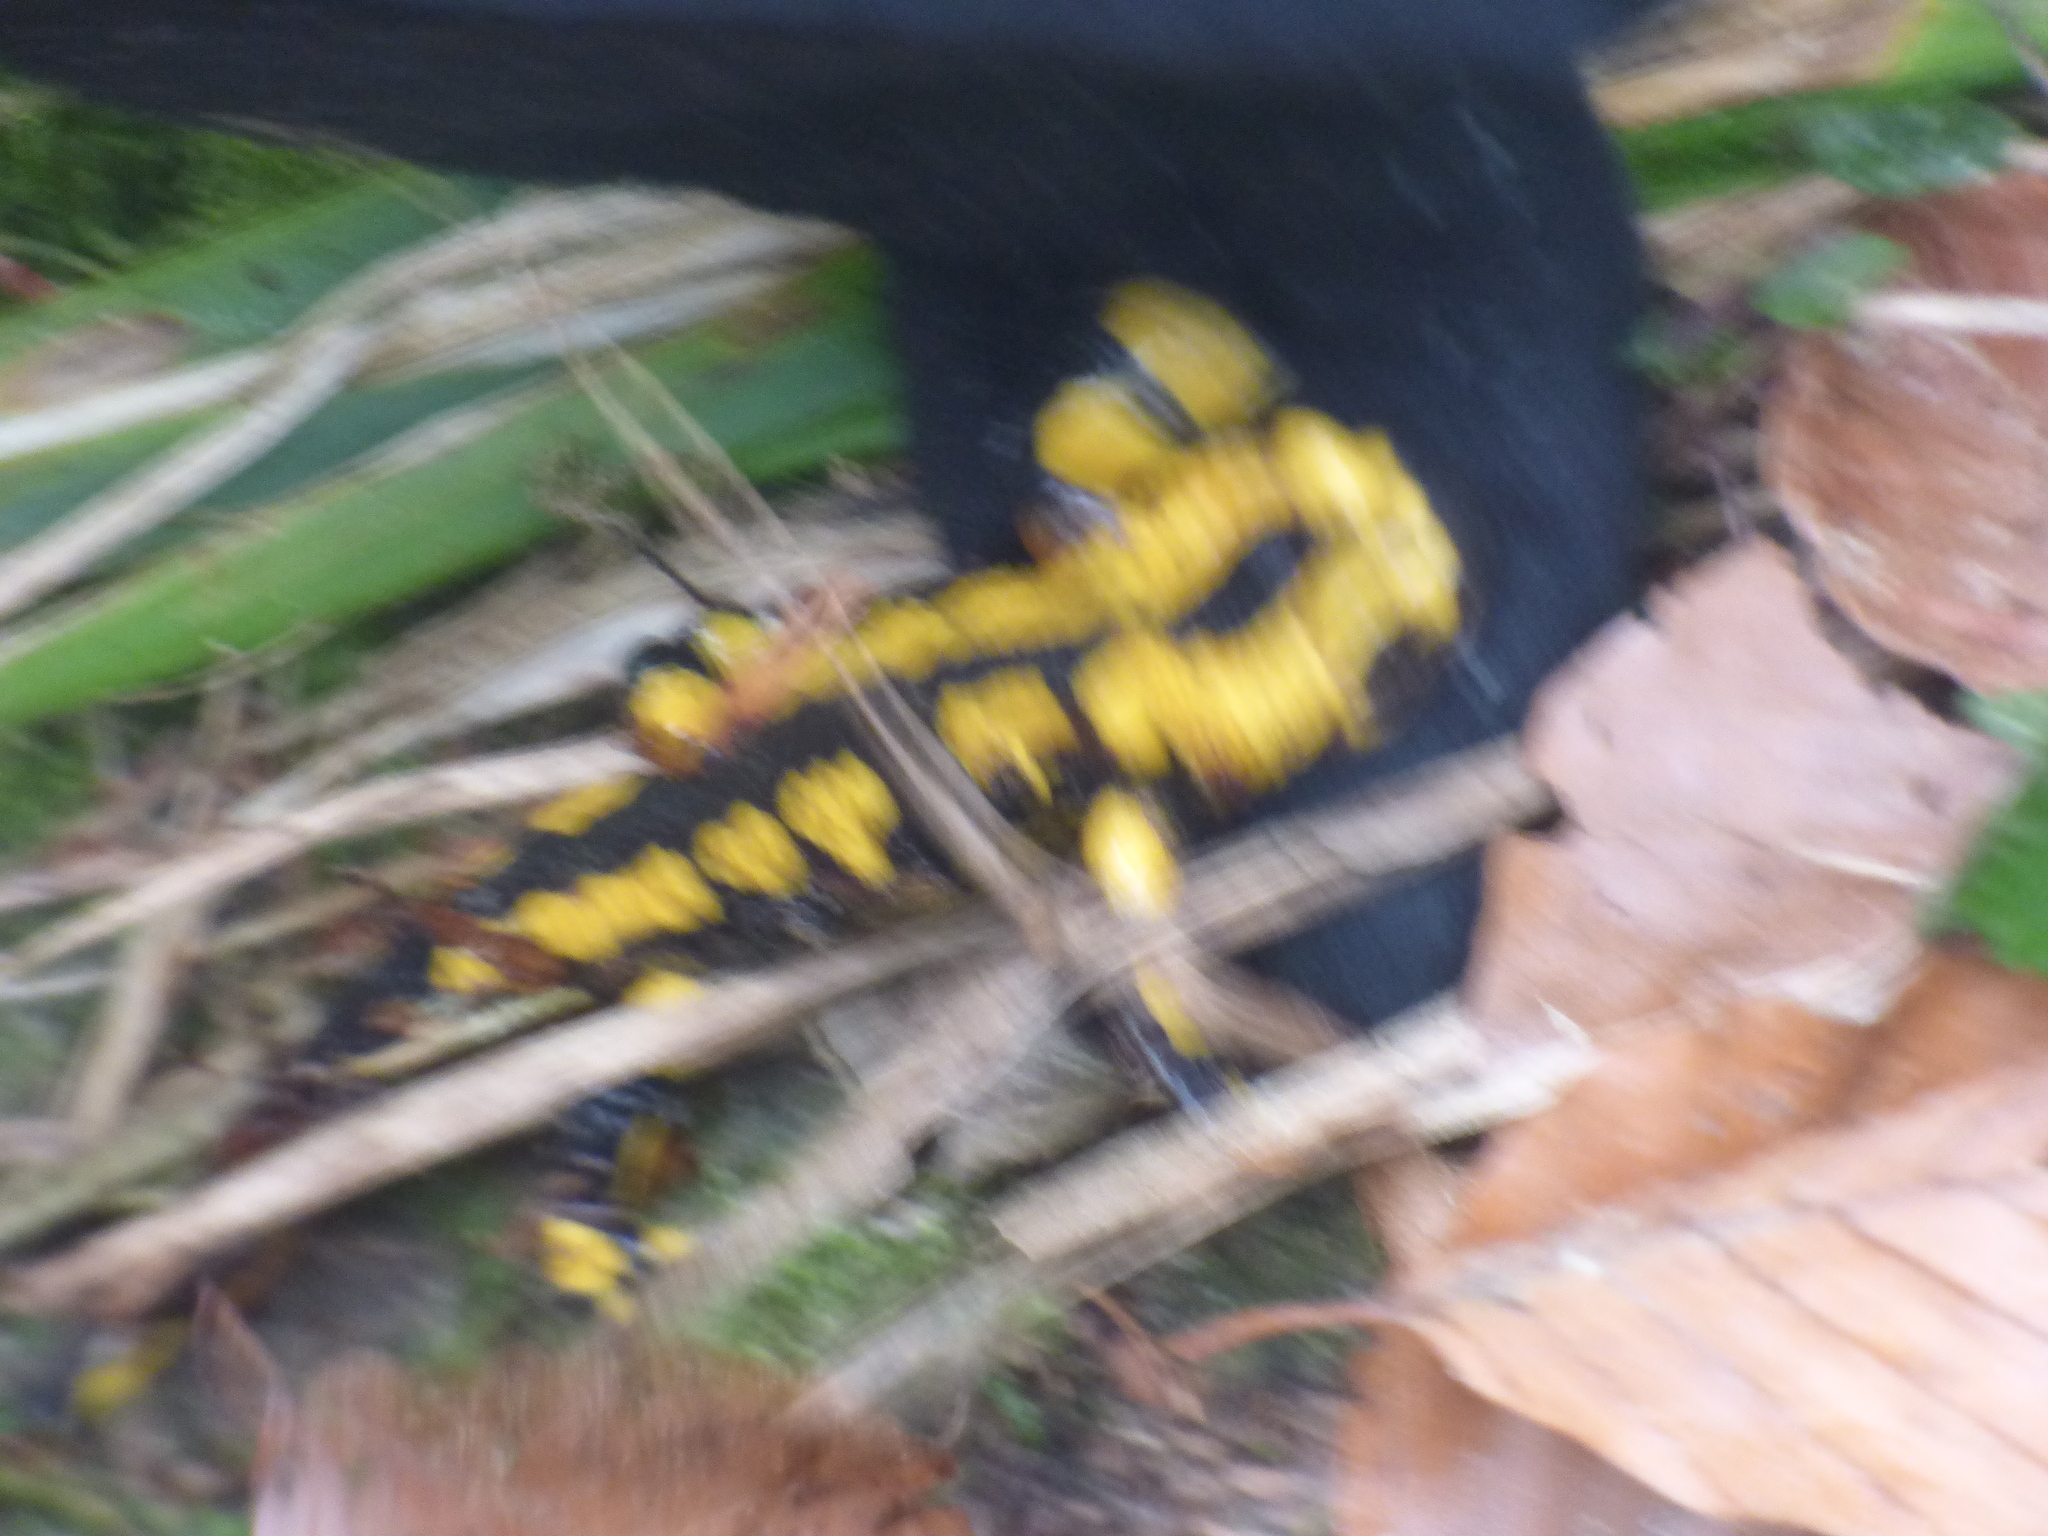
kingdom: Animalia
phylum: Chordata
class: Amphibia
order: Caudata
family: Salamandridae
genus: Salamandra
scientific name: Salamandra salamandra
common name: Fire salamander
